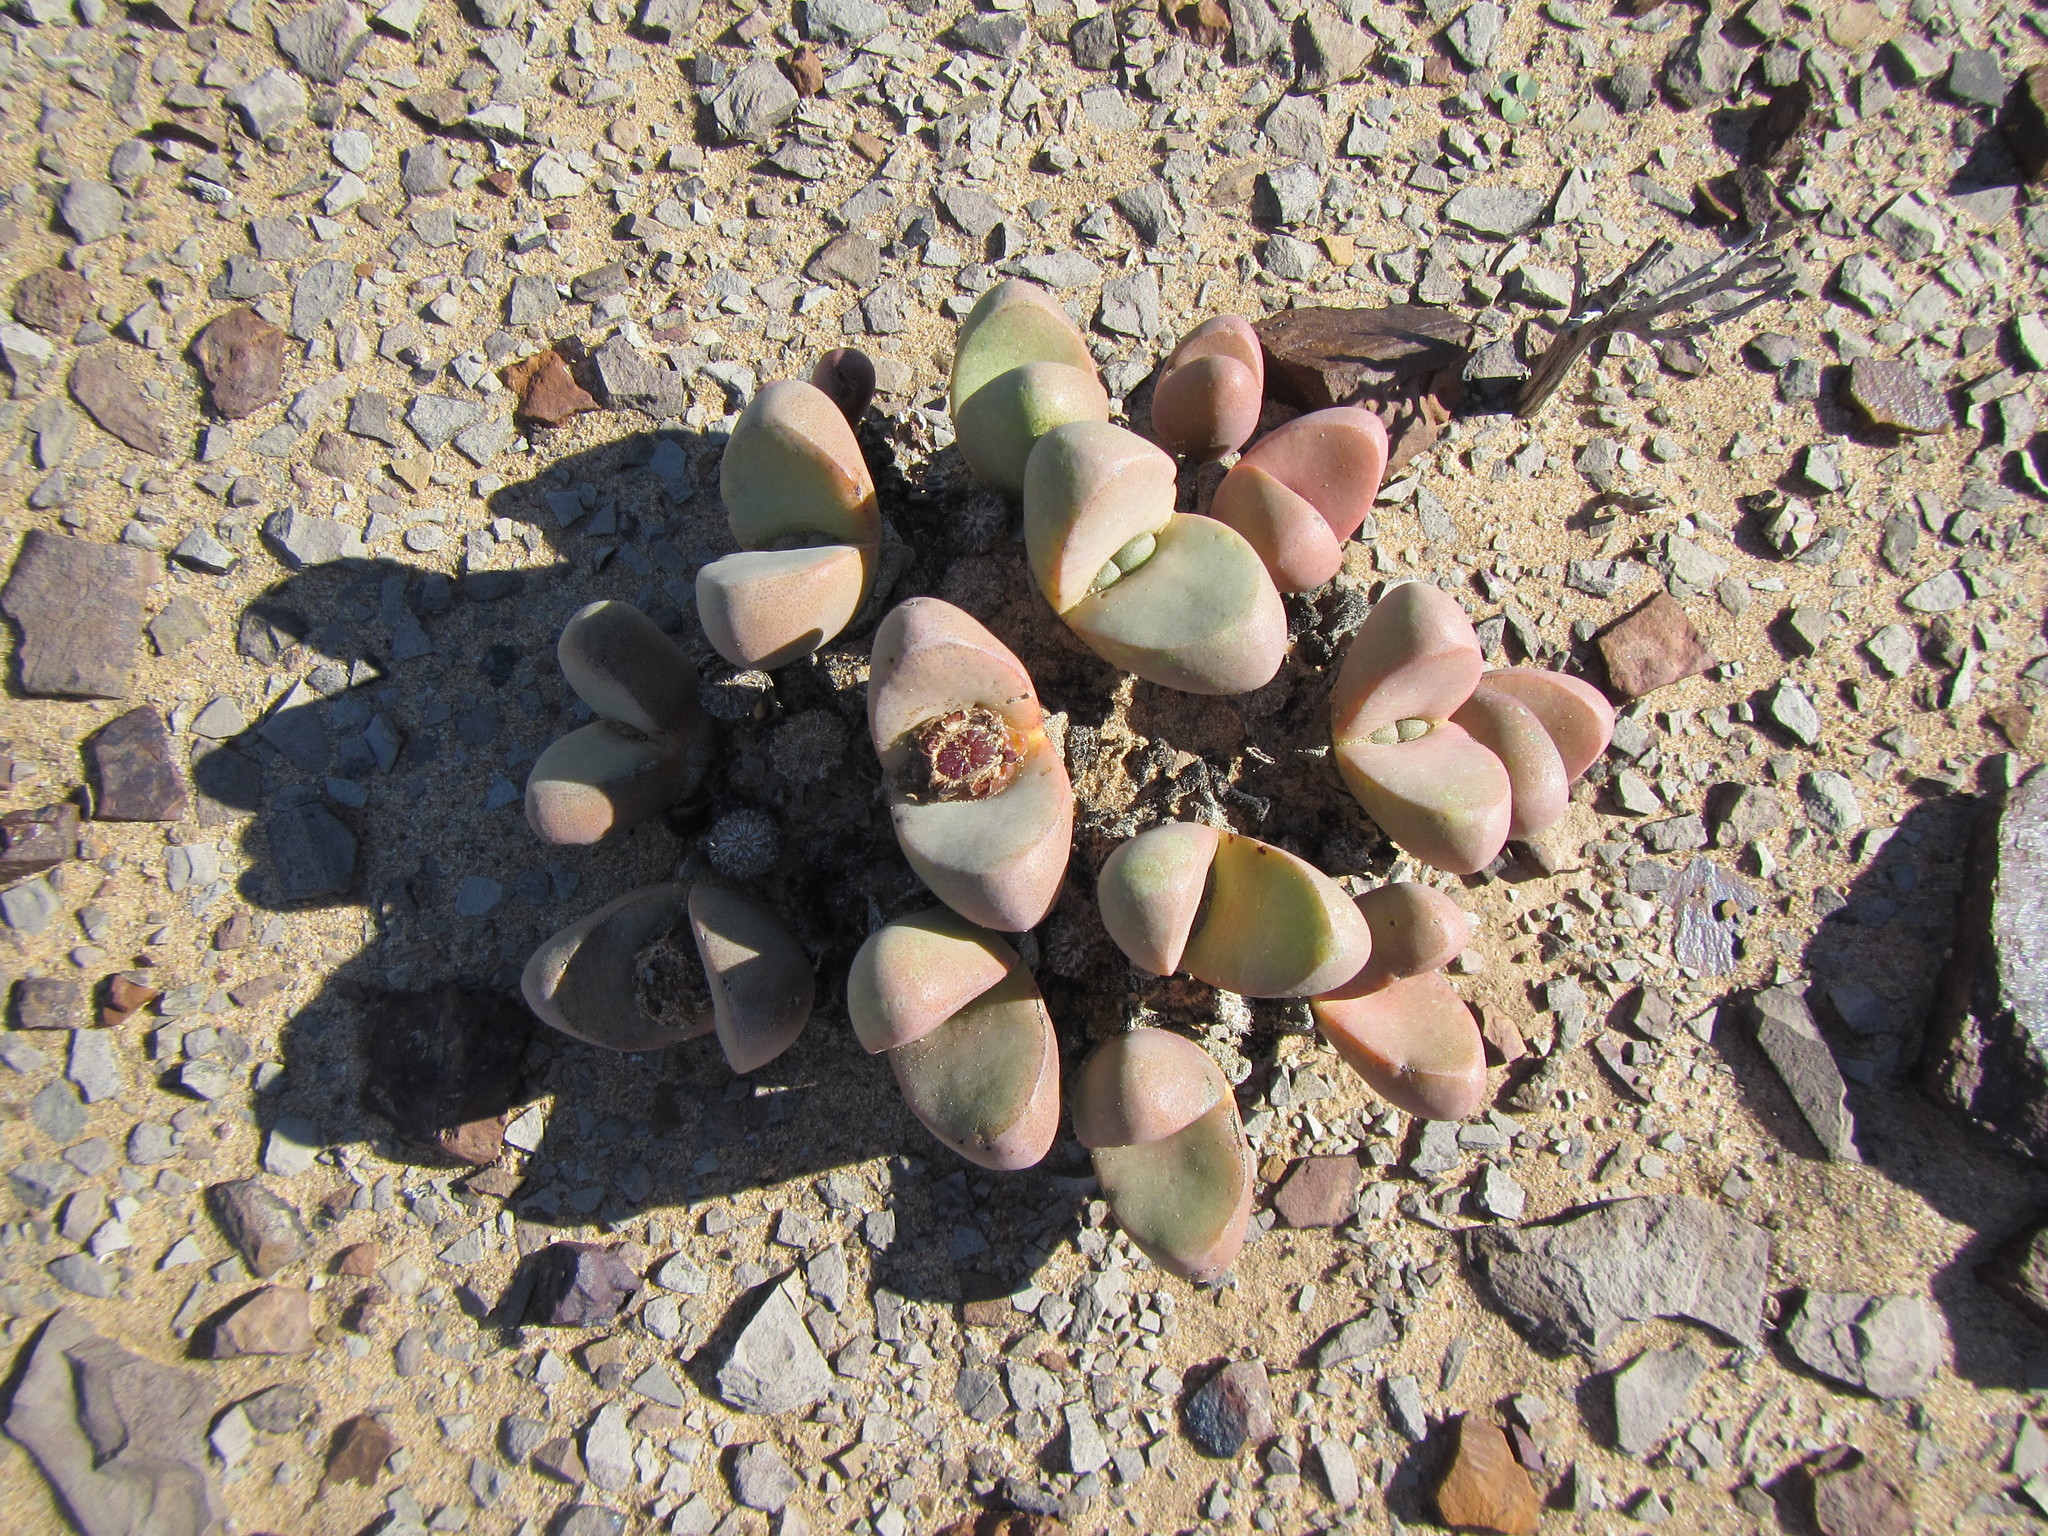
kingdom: Plantae
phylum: Tracheophyta
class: Magnoliopsida
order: Caryophyllales
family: Aizoaceae
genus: Tanquana
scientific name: Tanquana prismatica
